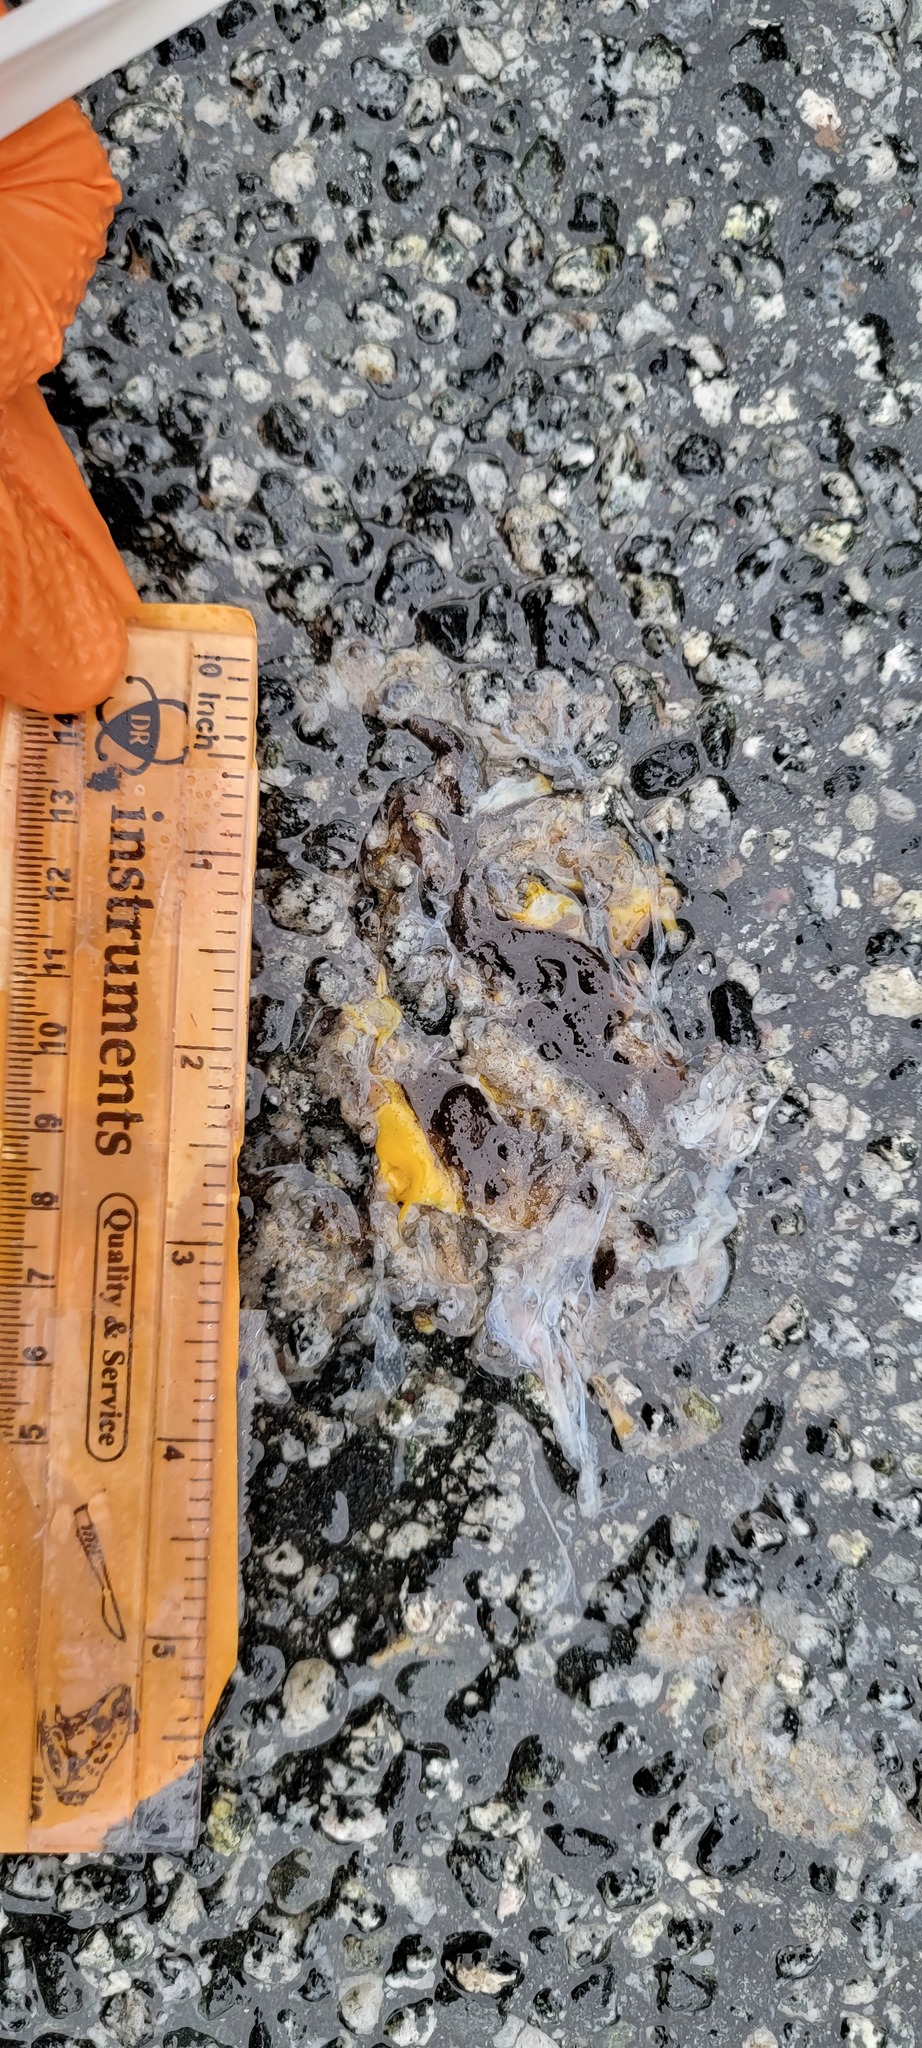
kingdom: Animalia
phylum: Chordata
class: Amphibia
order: Caudata
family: Salamandridae
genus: Taricha
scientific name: Taricha
